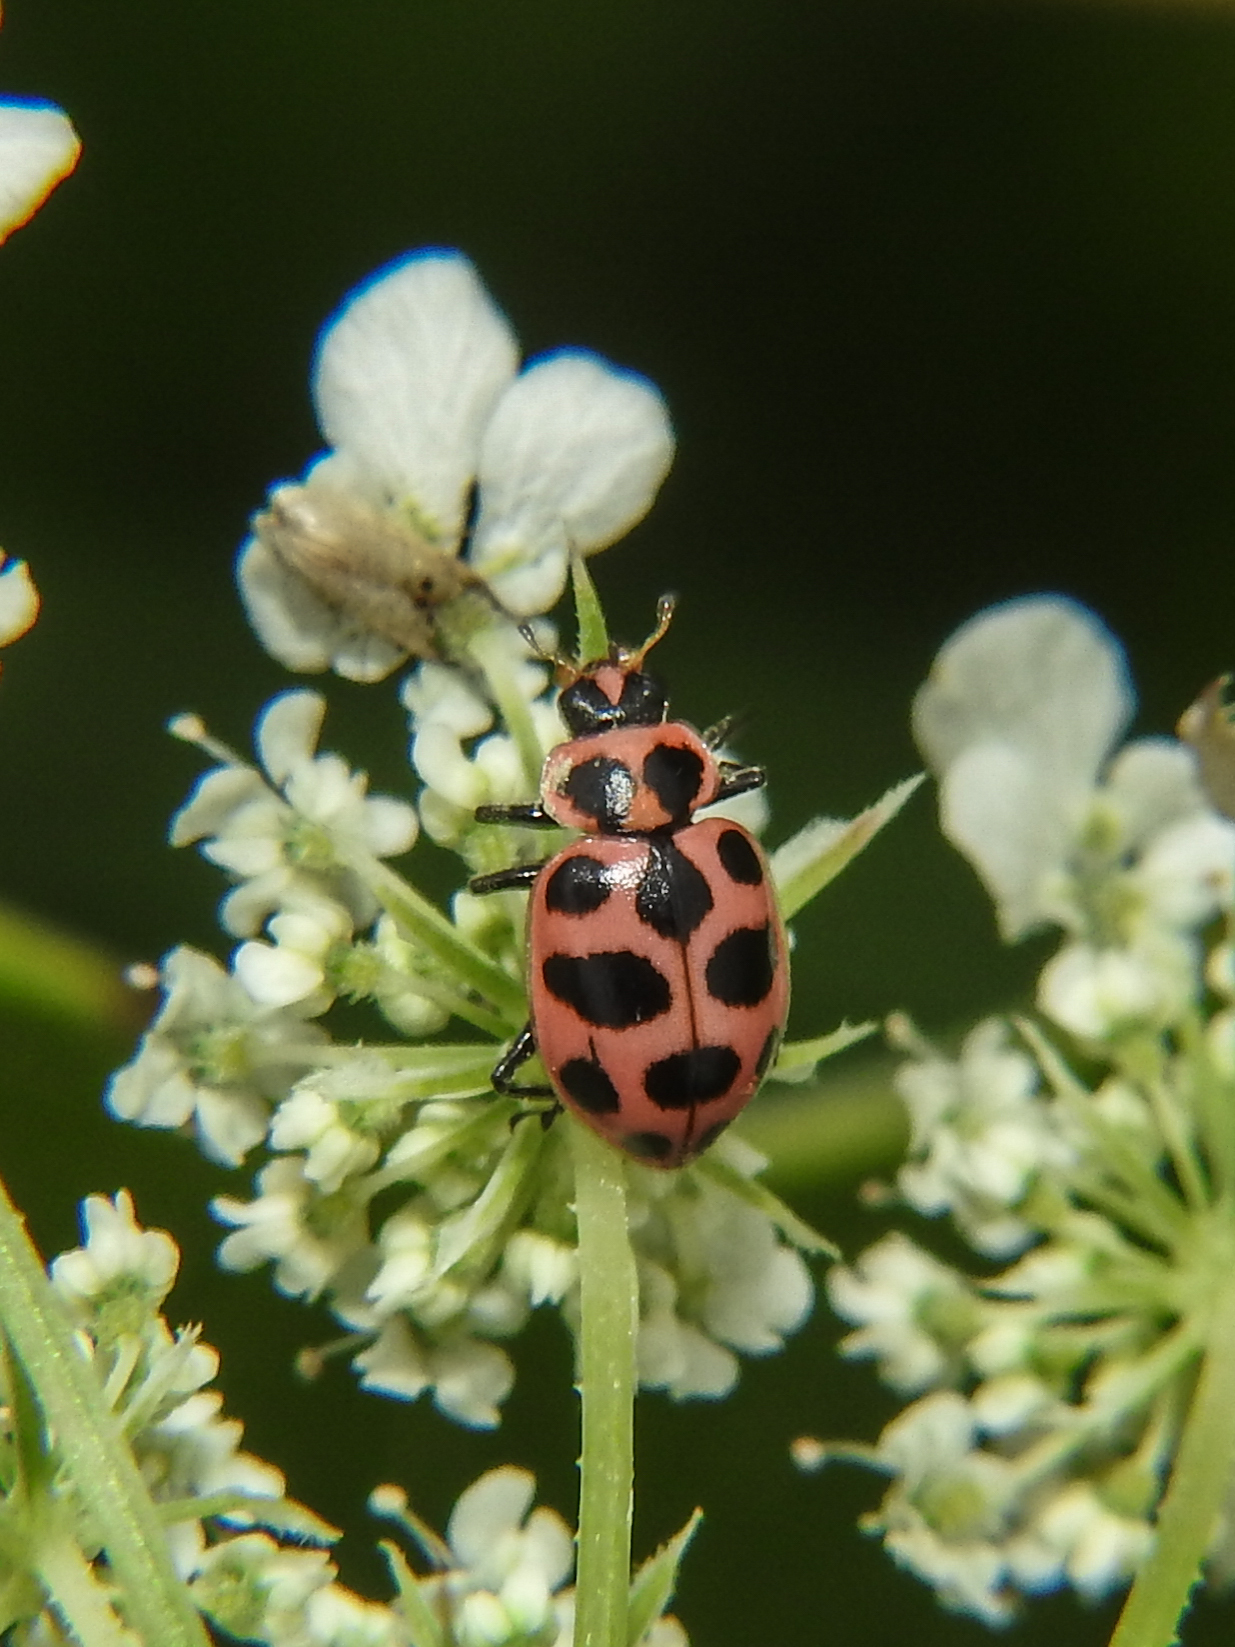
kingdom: Animalia
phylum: Arthropoda
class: Insecta
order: Coleoptera
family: Coccinellidae
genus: Coleomegilla
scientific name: Coleomegilla maculata
